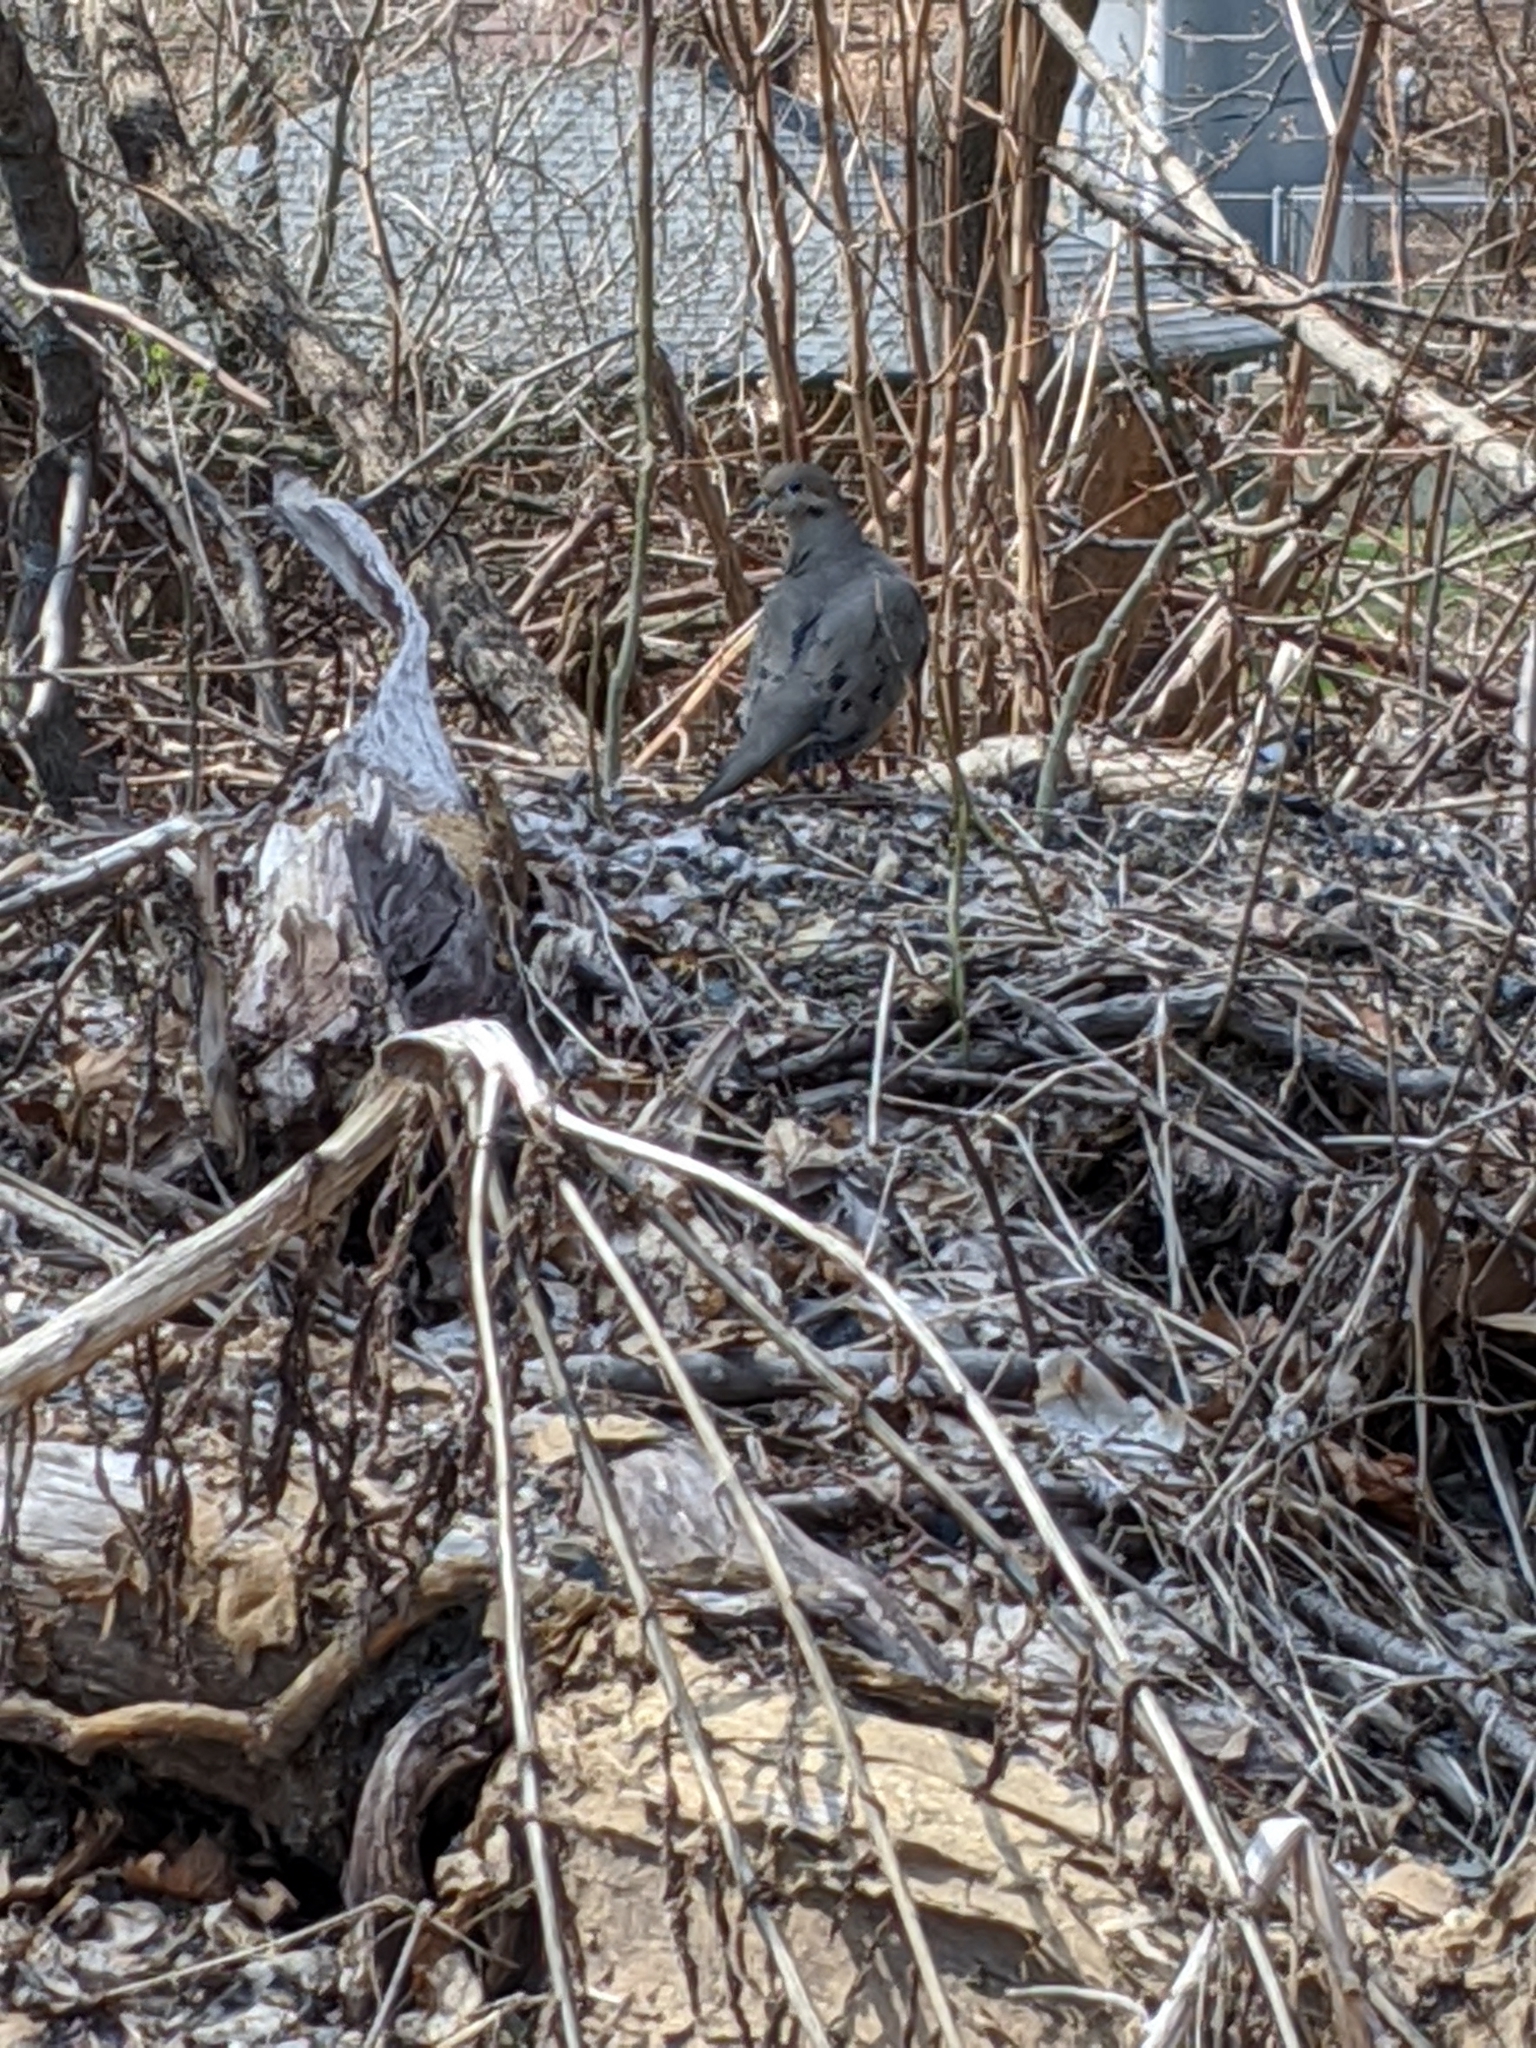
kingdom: Animalia
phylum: Chordata
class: Aves
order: Columbiformes
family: Columbidae
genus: Zenaida
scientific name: Zenaida macroura
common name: Mourning dove
